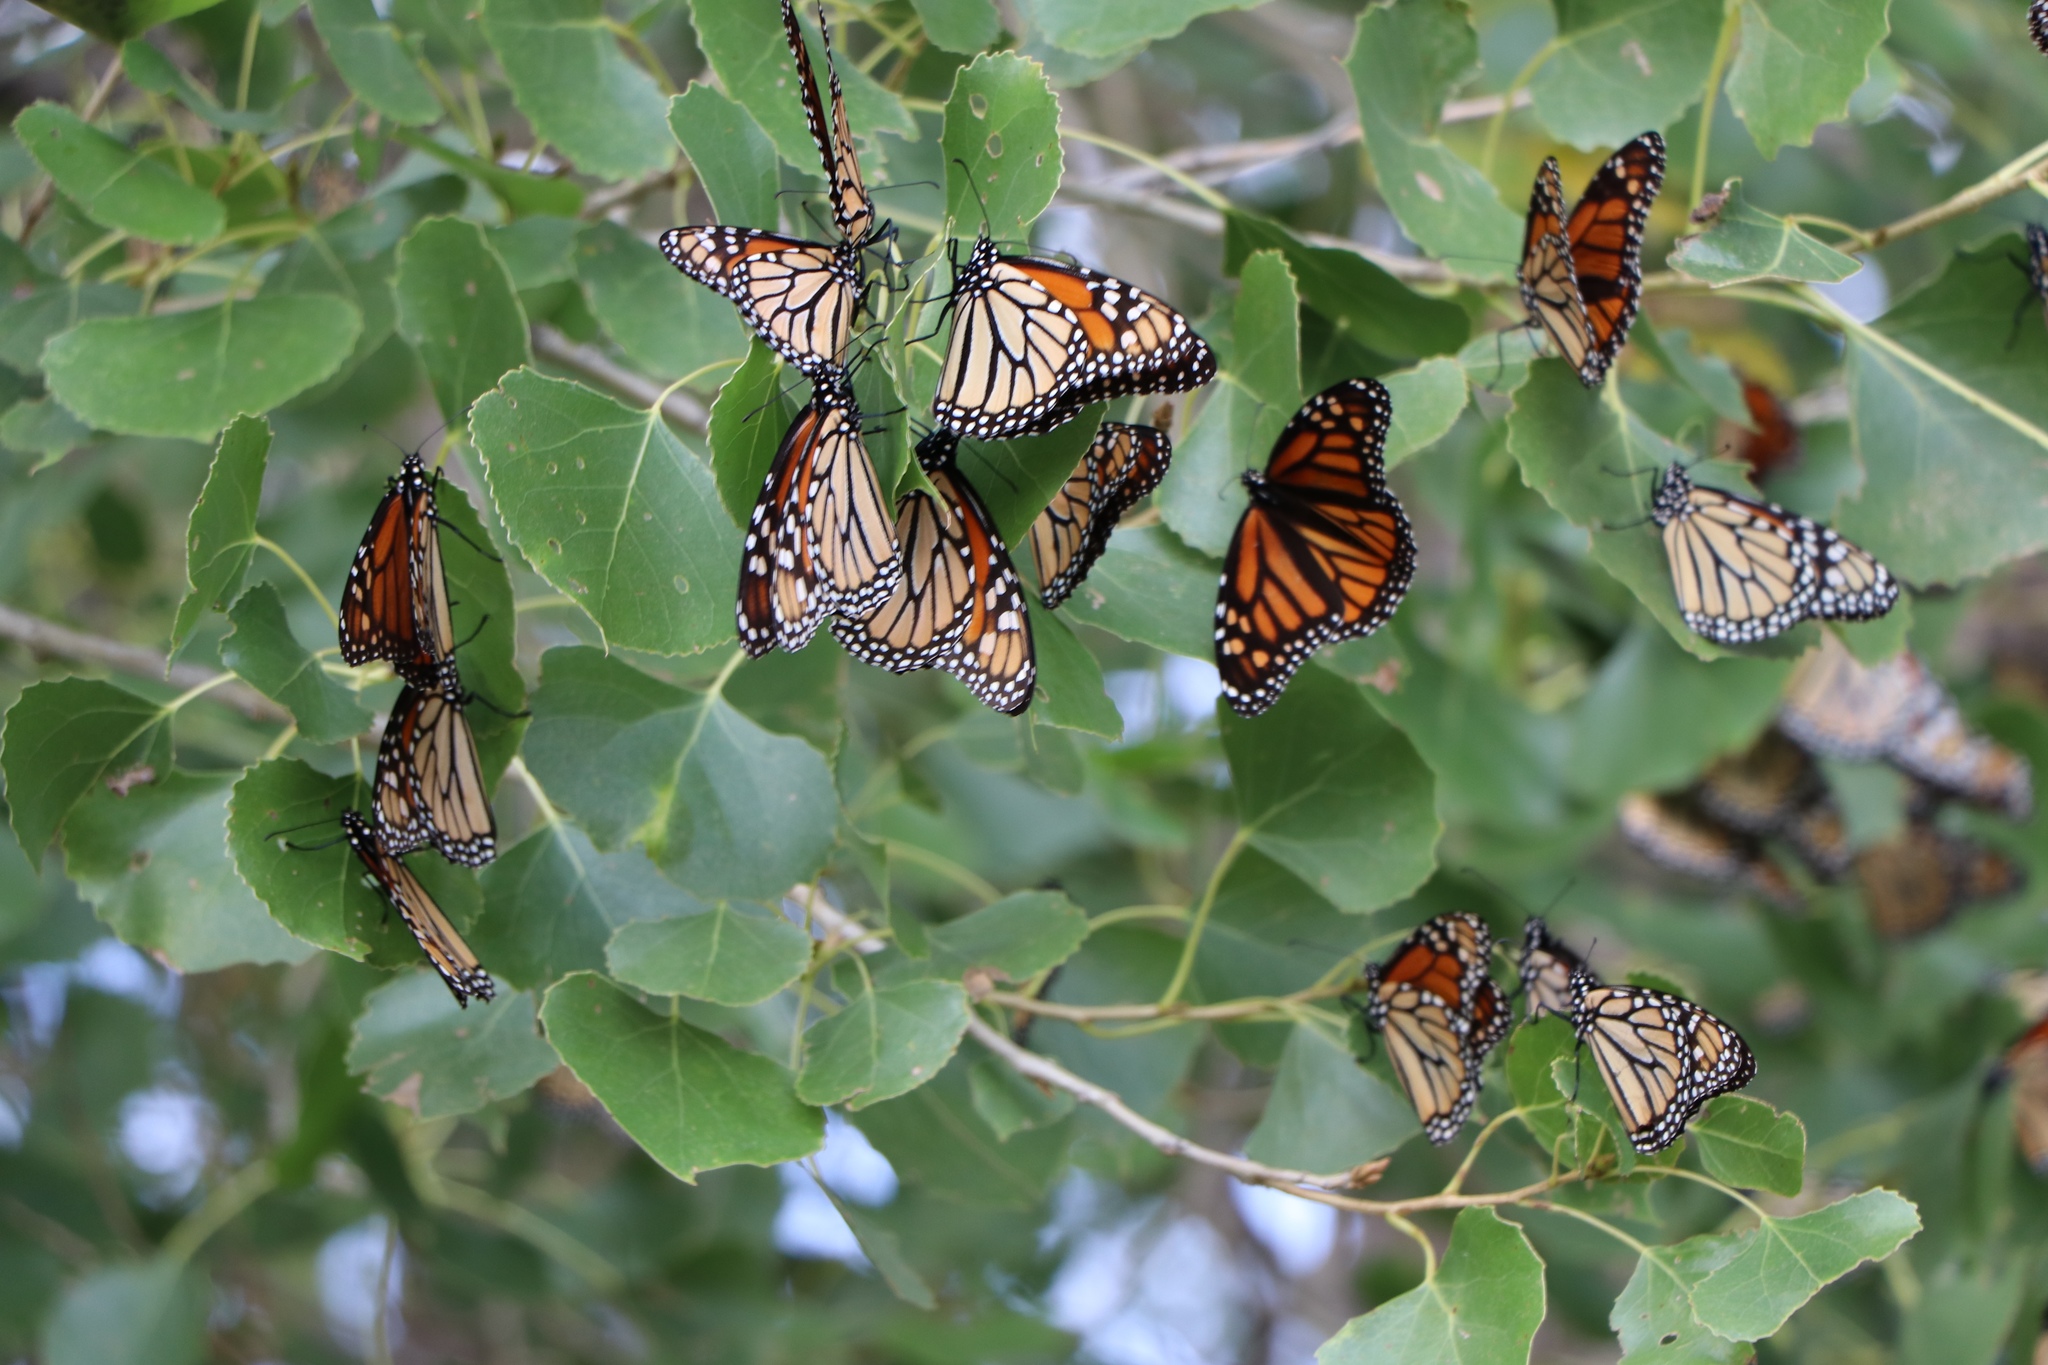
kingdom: Animalia
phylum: Arthropoda
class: Insecta
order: Lepidoptera
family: Nymphalidae
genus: Danaus
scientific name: Danaus plexippus
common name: Monarch
